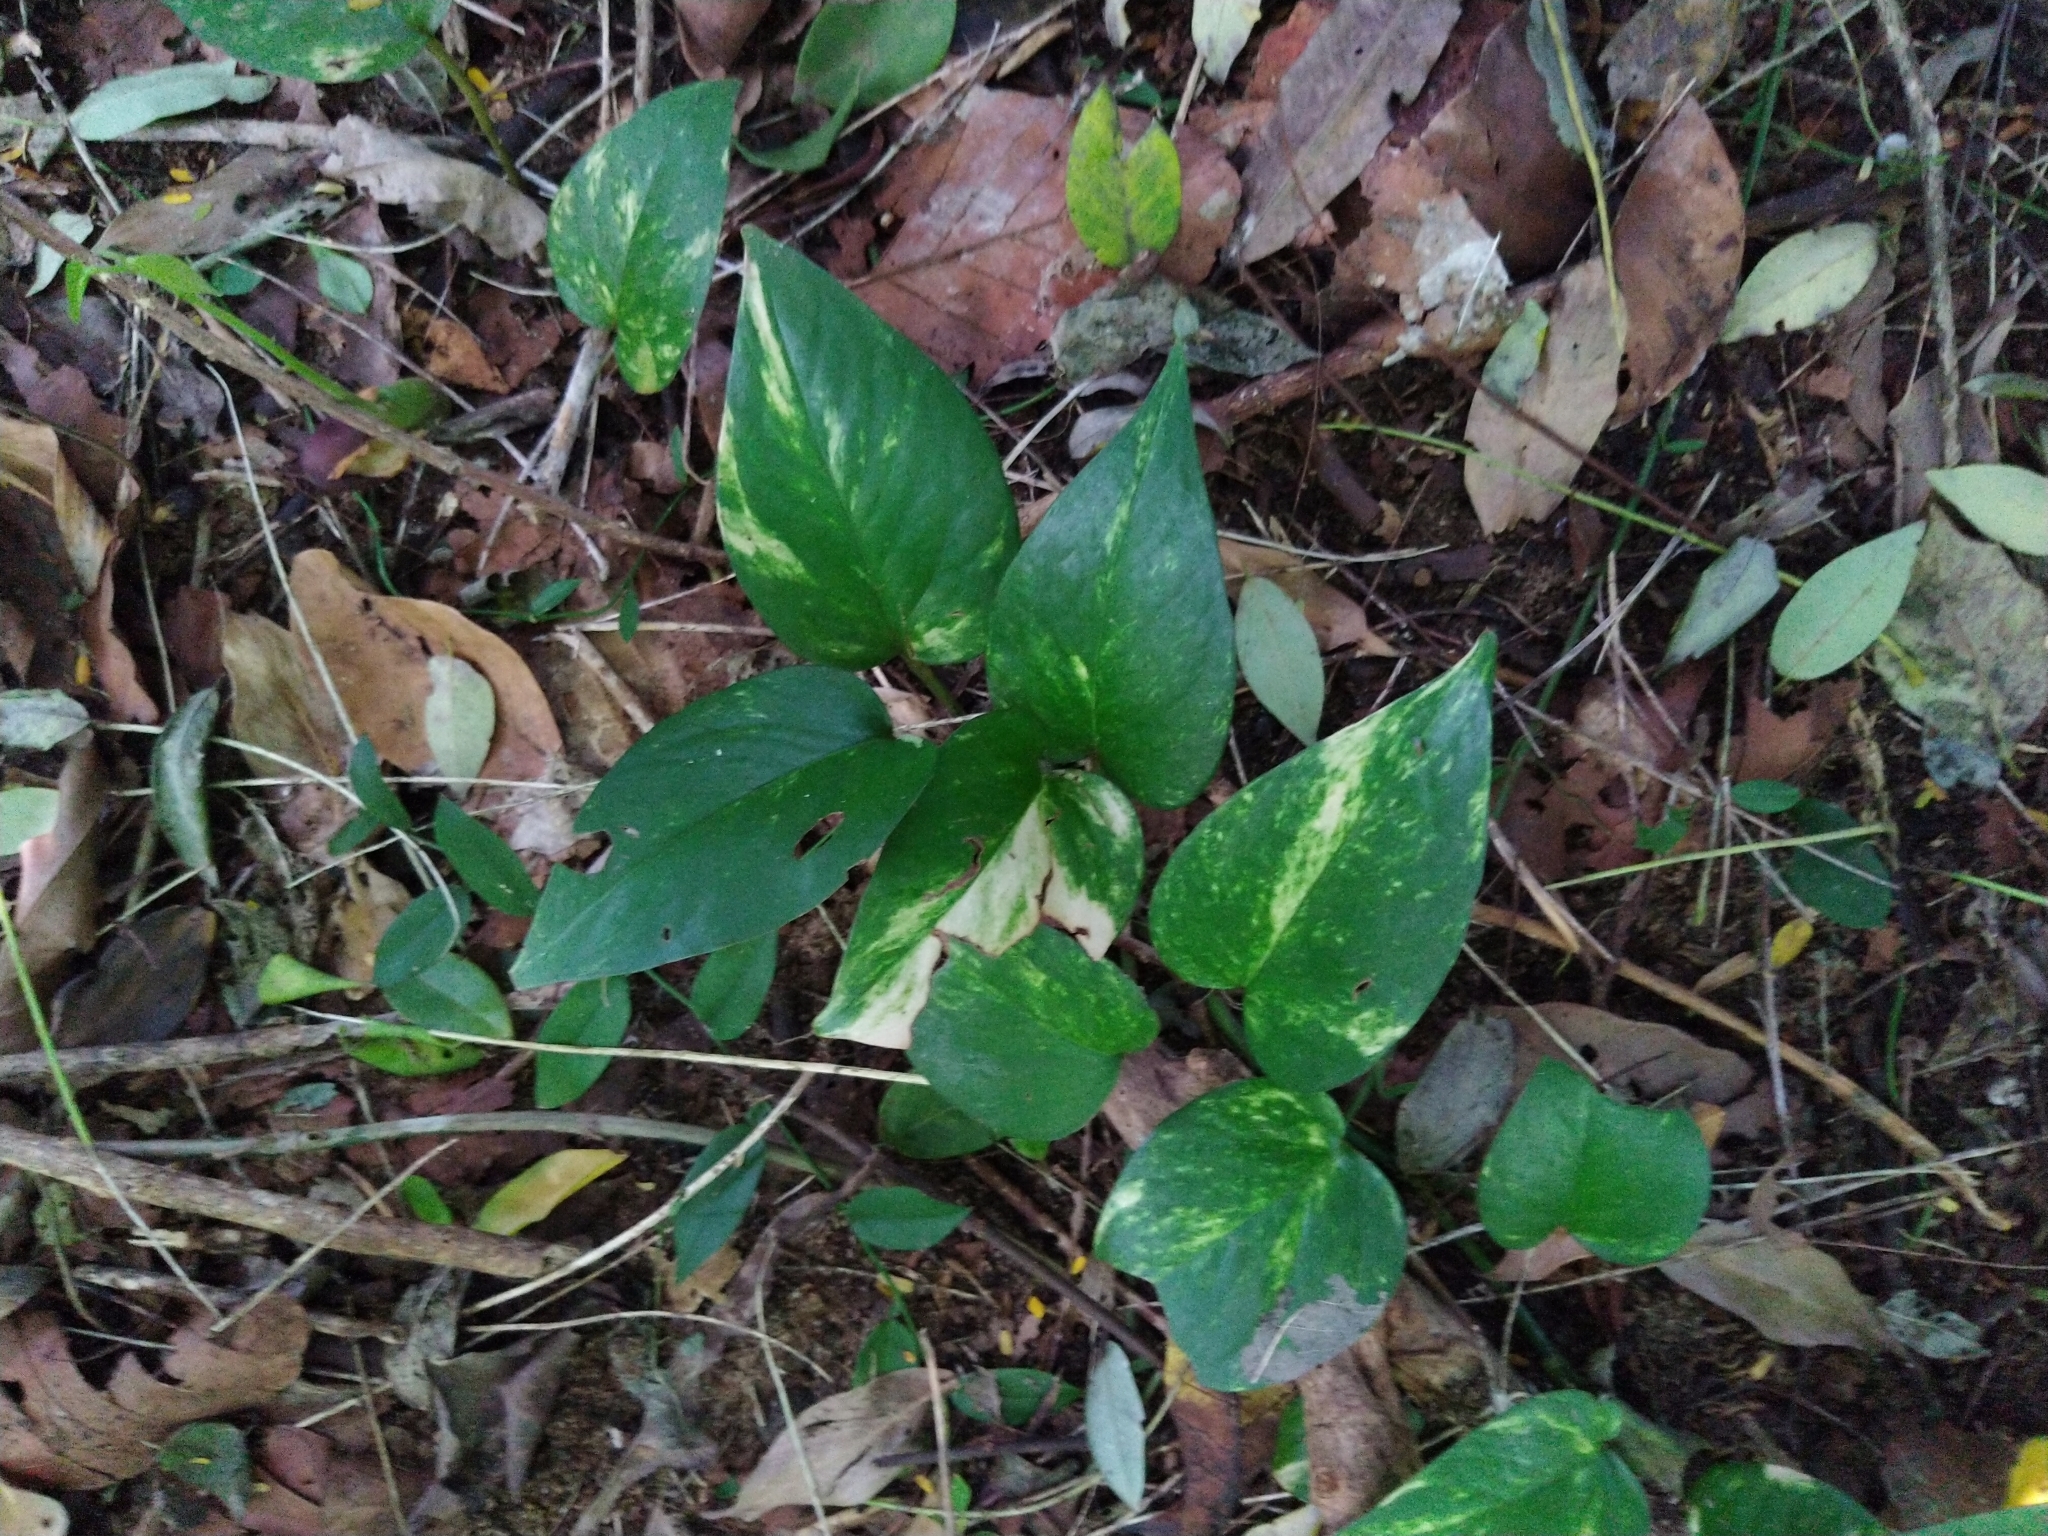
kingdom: Plantae
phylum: Tracheophyta
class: Liliopsida
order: Alismatales
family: Araceae
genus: Epipremnum
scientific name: Epipremnum aureum
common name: Golden hunter's-robe
